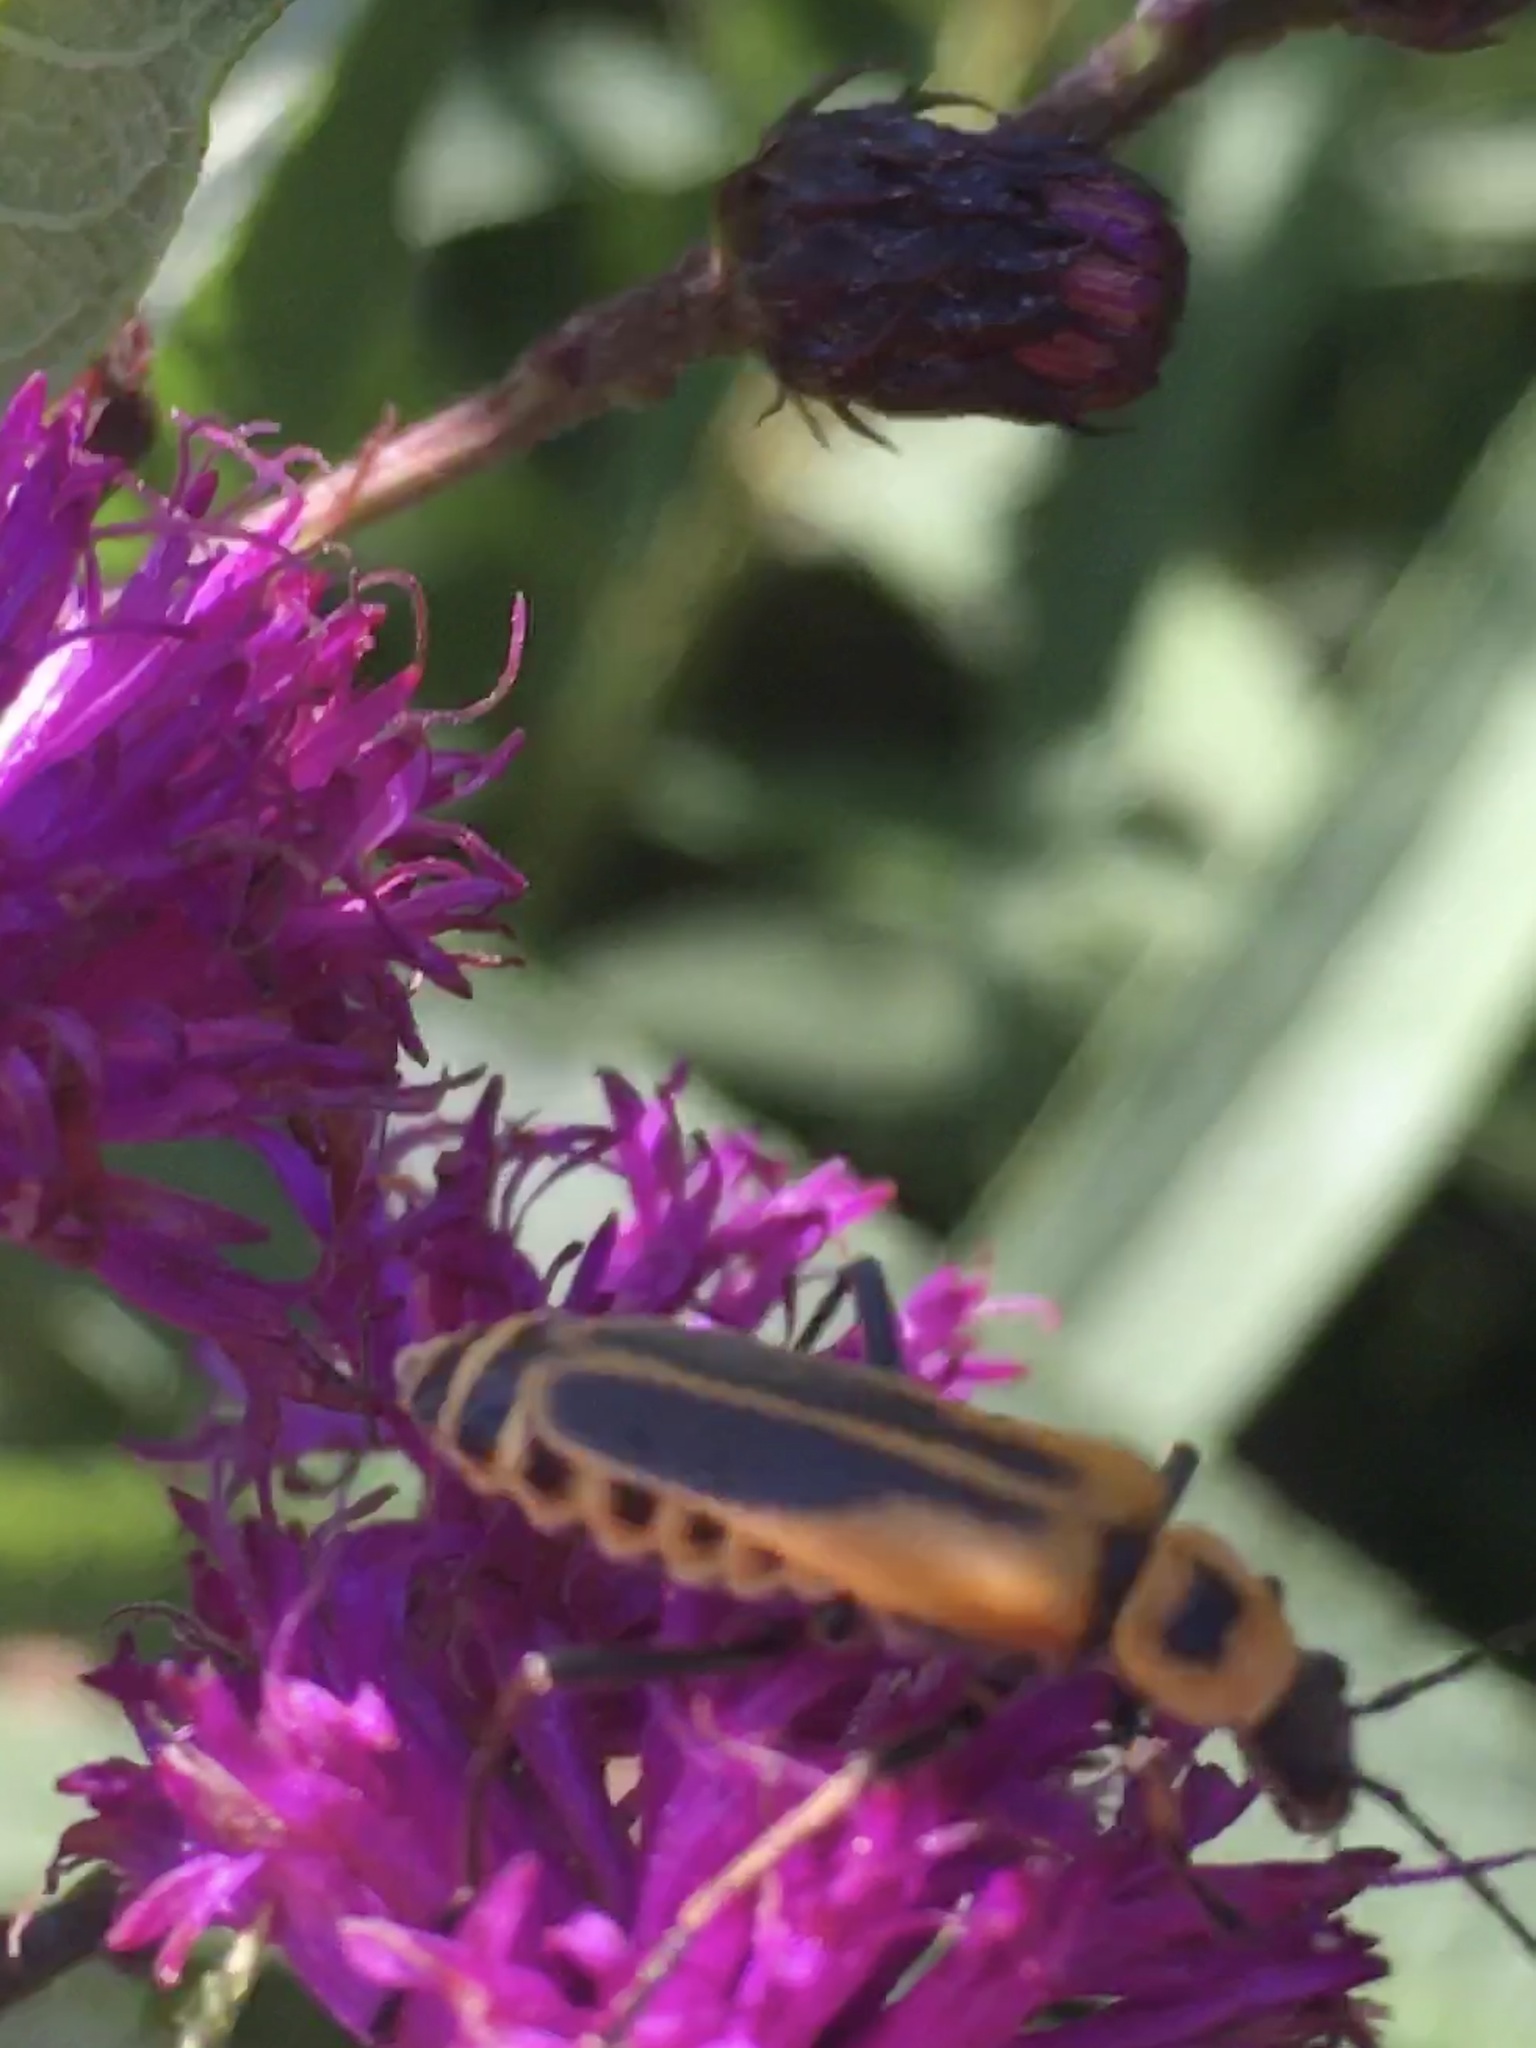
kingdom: Animalia
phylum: Arthropoda
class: Insecta
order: Coleoptera
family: Cantharidae
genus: Chauliognathus
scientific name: Chauliognathus pensylvanicus
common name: Goldenrod soldier beetle
